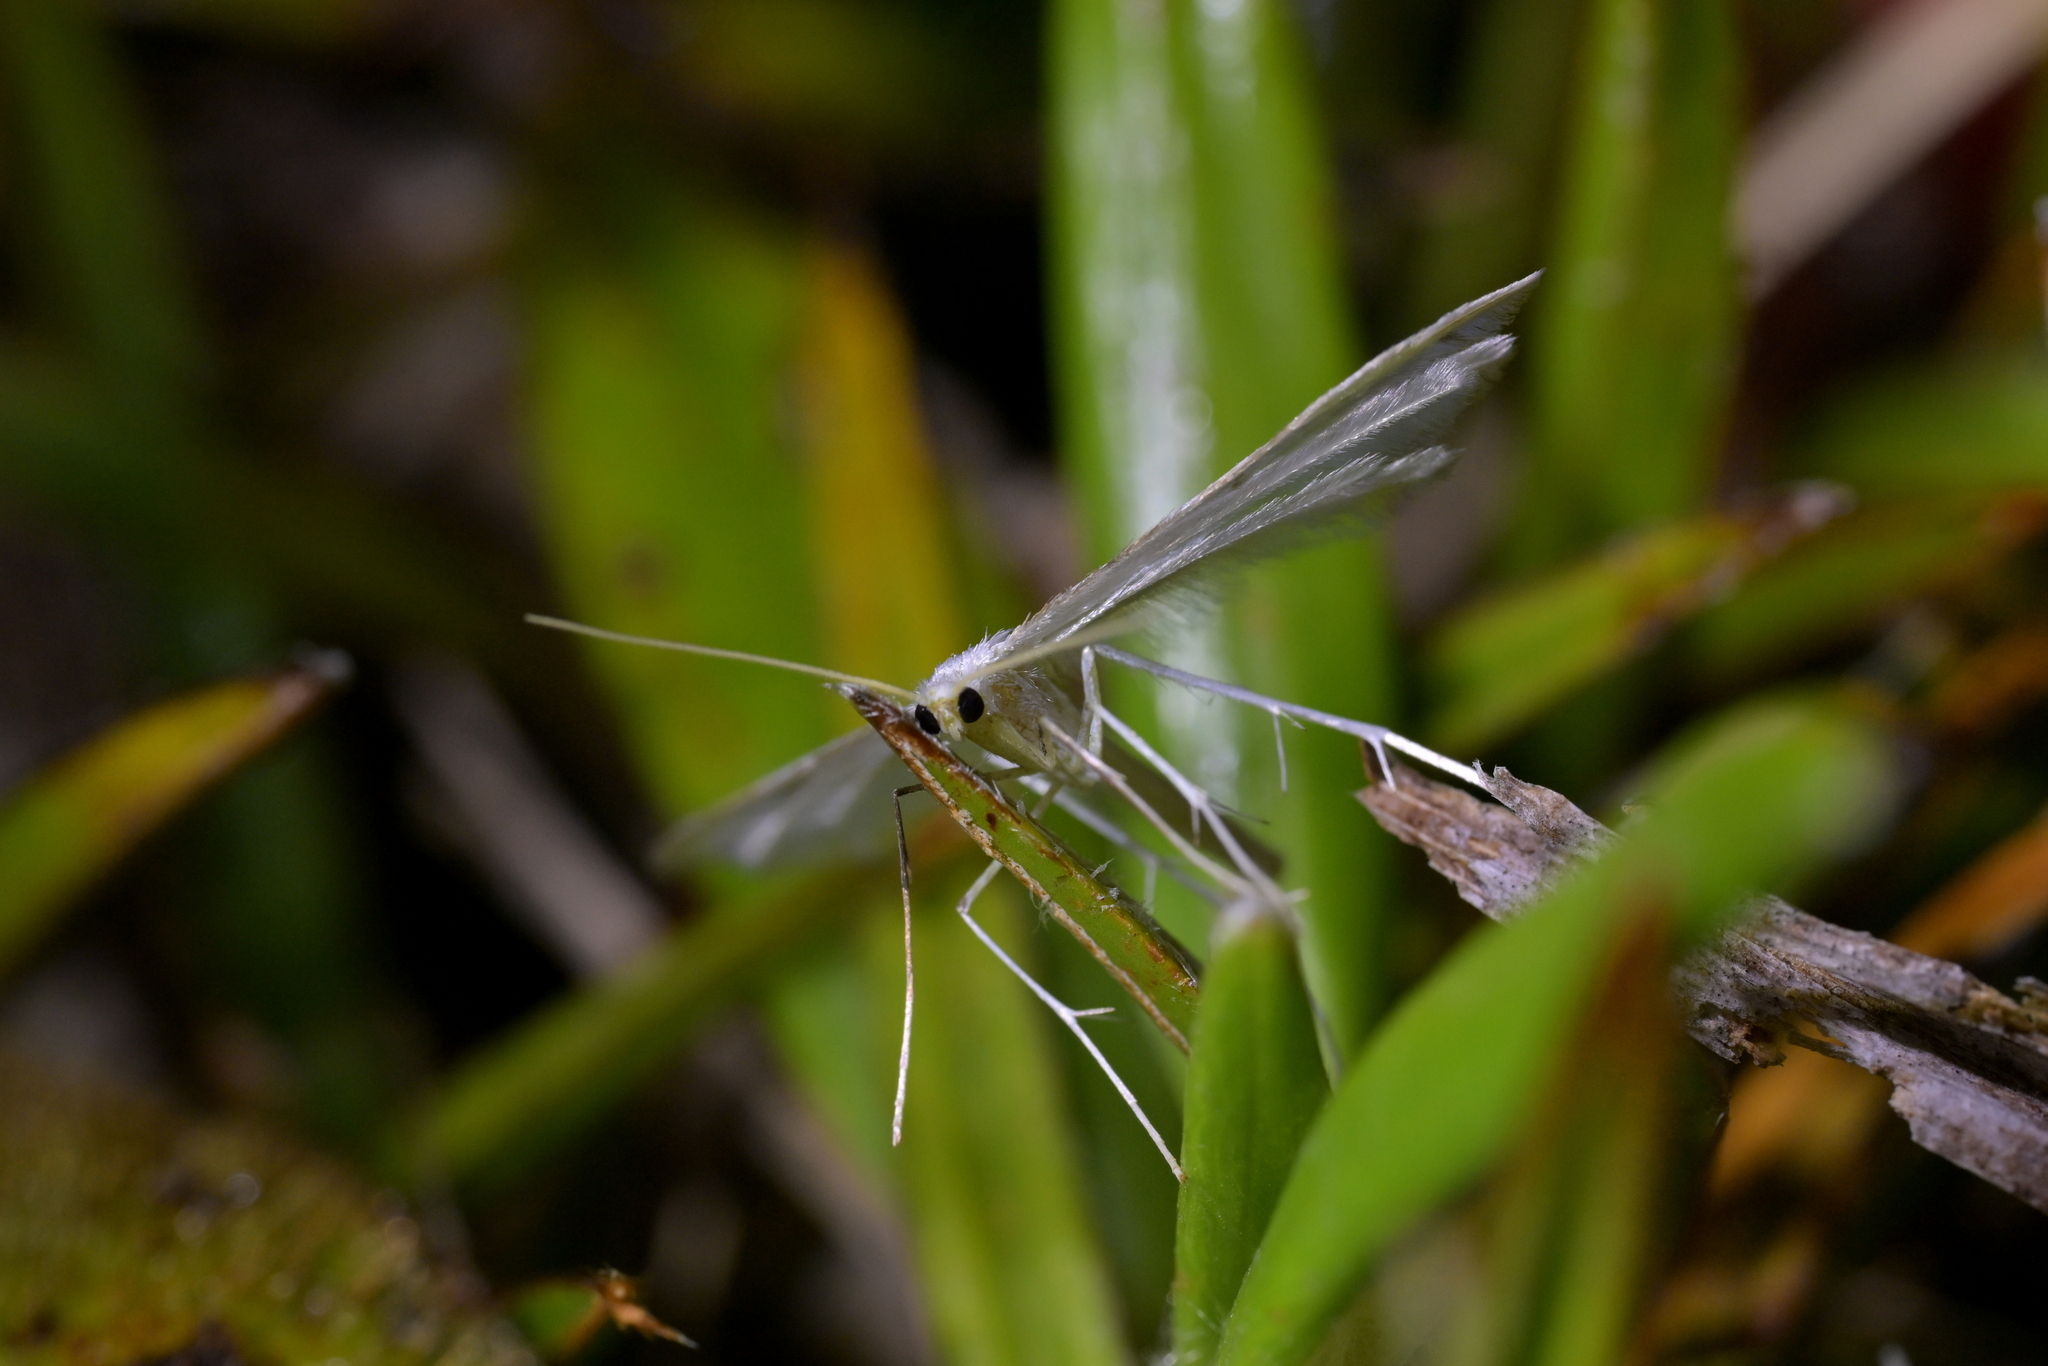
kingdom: Animalia
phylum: Arthropoda
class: Insecta
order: Lepidoptera
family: Pterophoridae
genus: Pterophorus
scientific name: Pterophorus monospilalis
